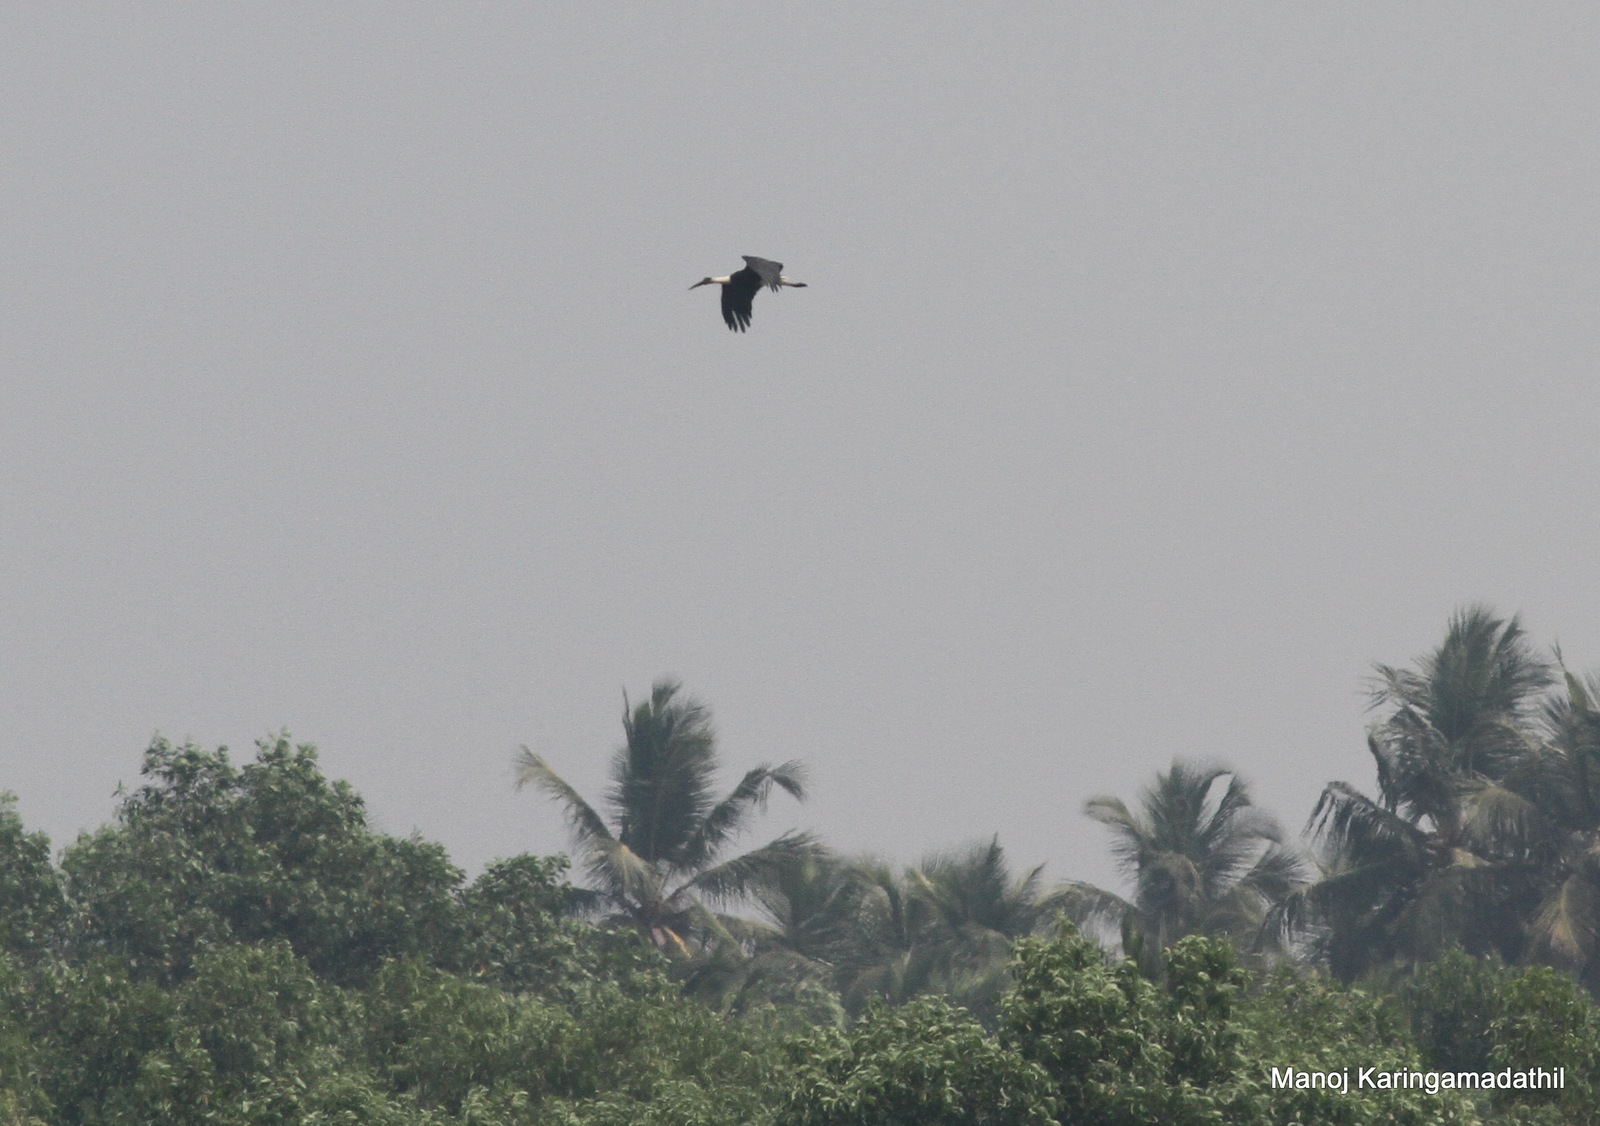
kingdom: Animalia
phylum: Chordata
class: Aves
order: Ciconiiformes
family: Ciconiidae
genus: Ciconia
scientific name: Ciconia episcopus
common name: Woolly-necked stork
